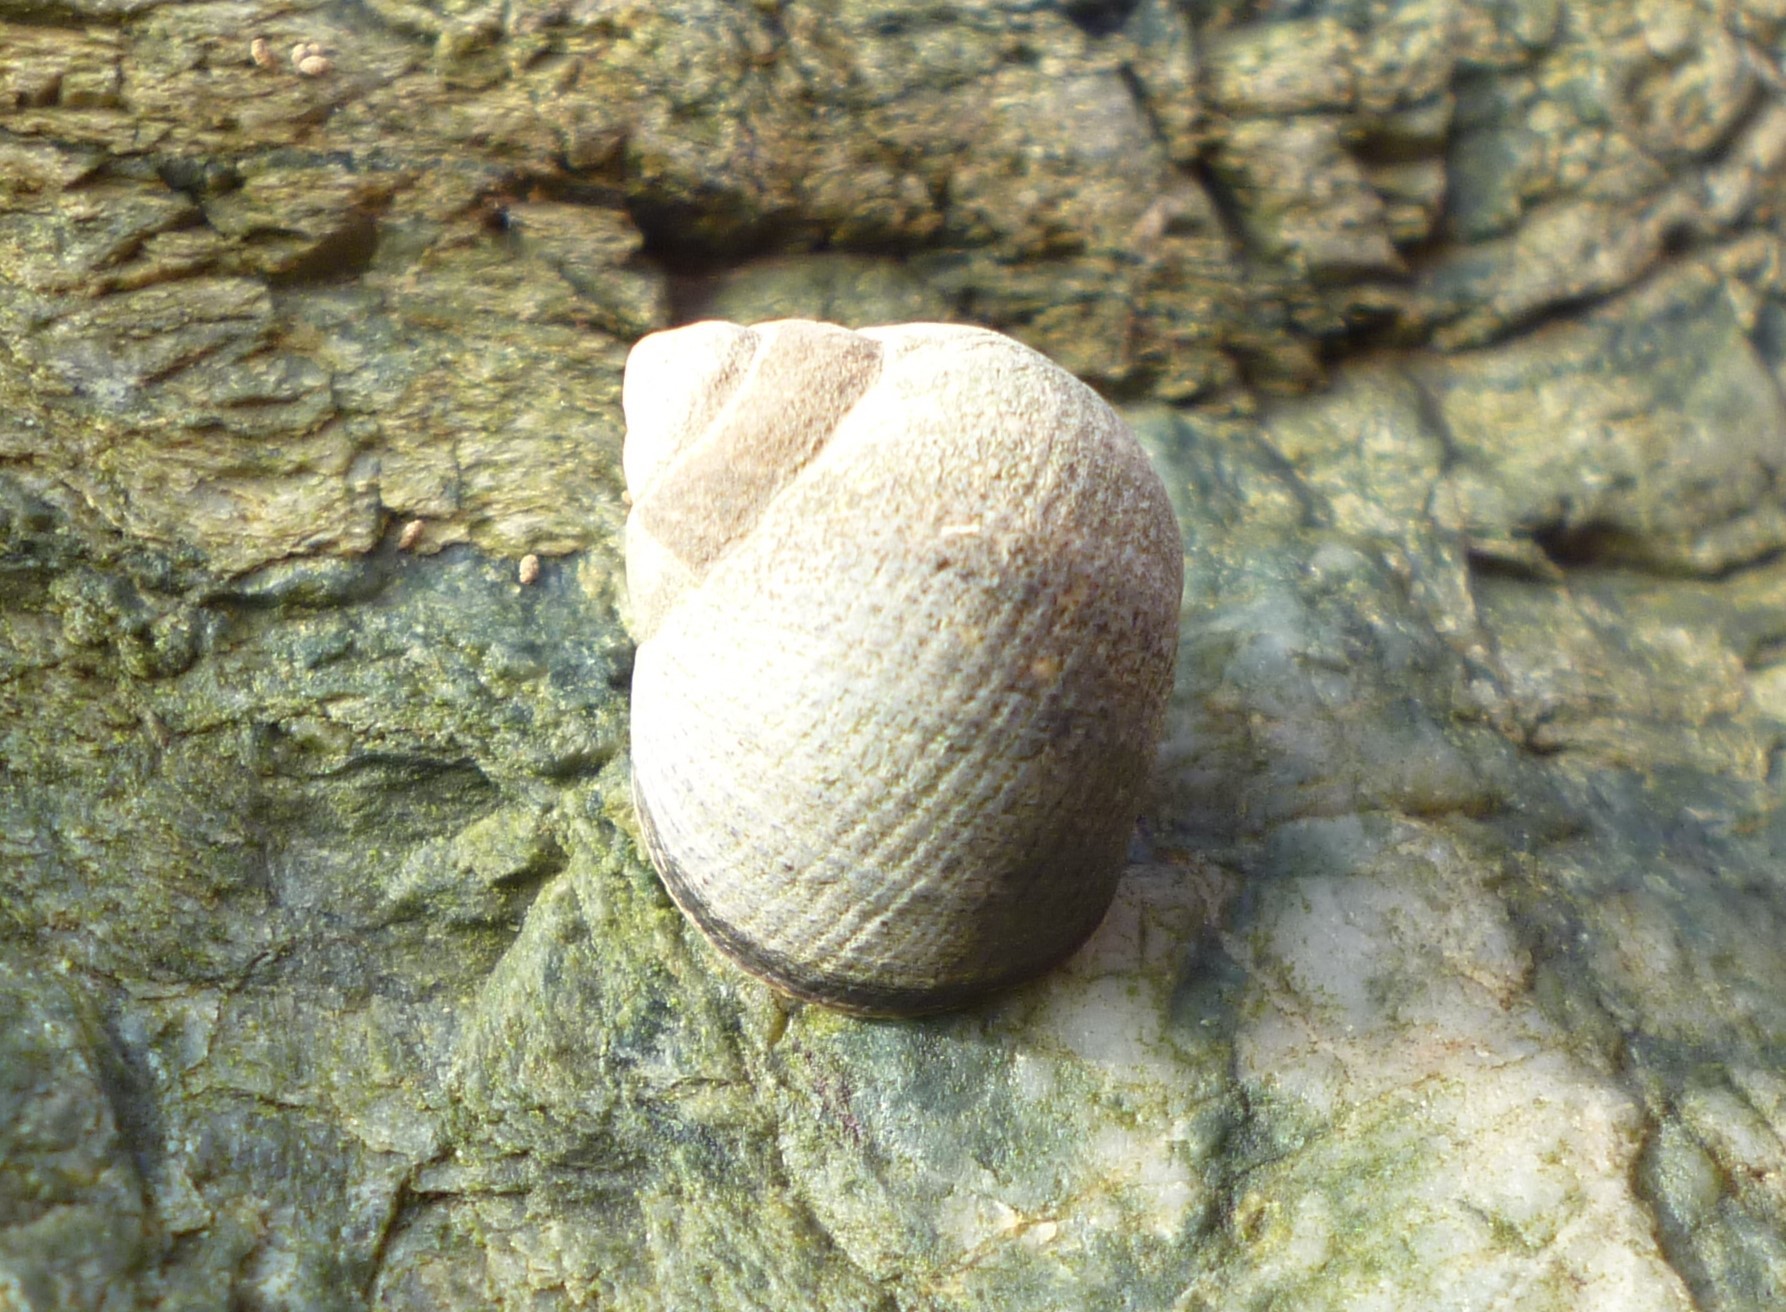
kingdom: Animalia
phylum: Mollusca
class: Gastropoda
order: Littorinimorpha
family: Littorinidae
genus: Littorina
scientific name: Littorina littorea
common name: Common periwinkle
